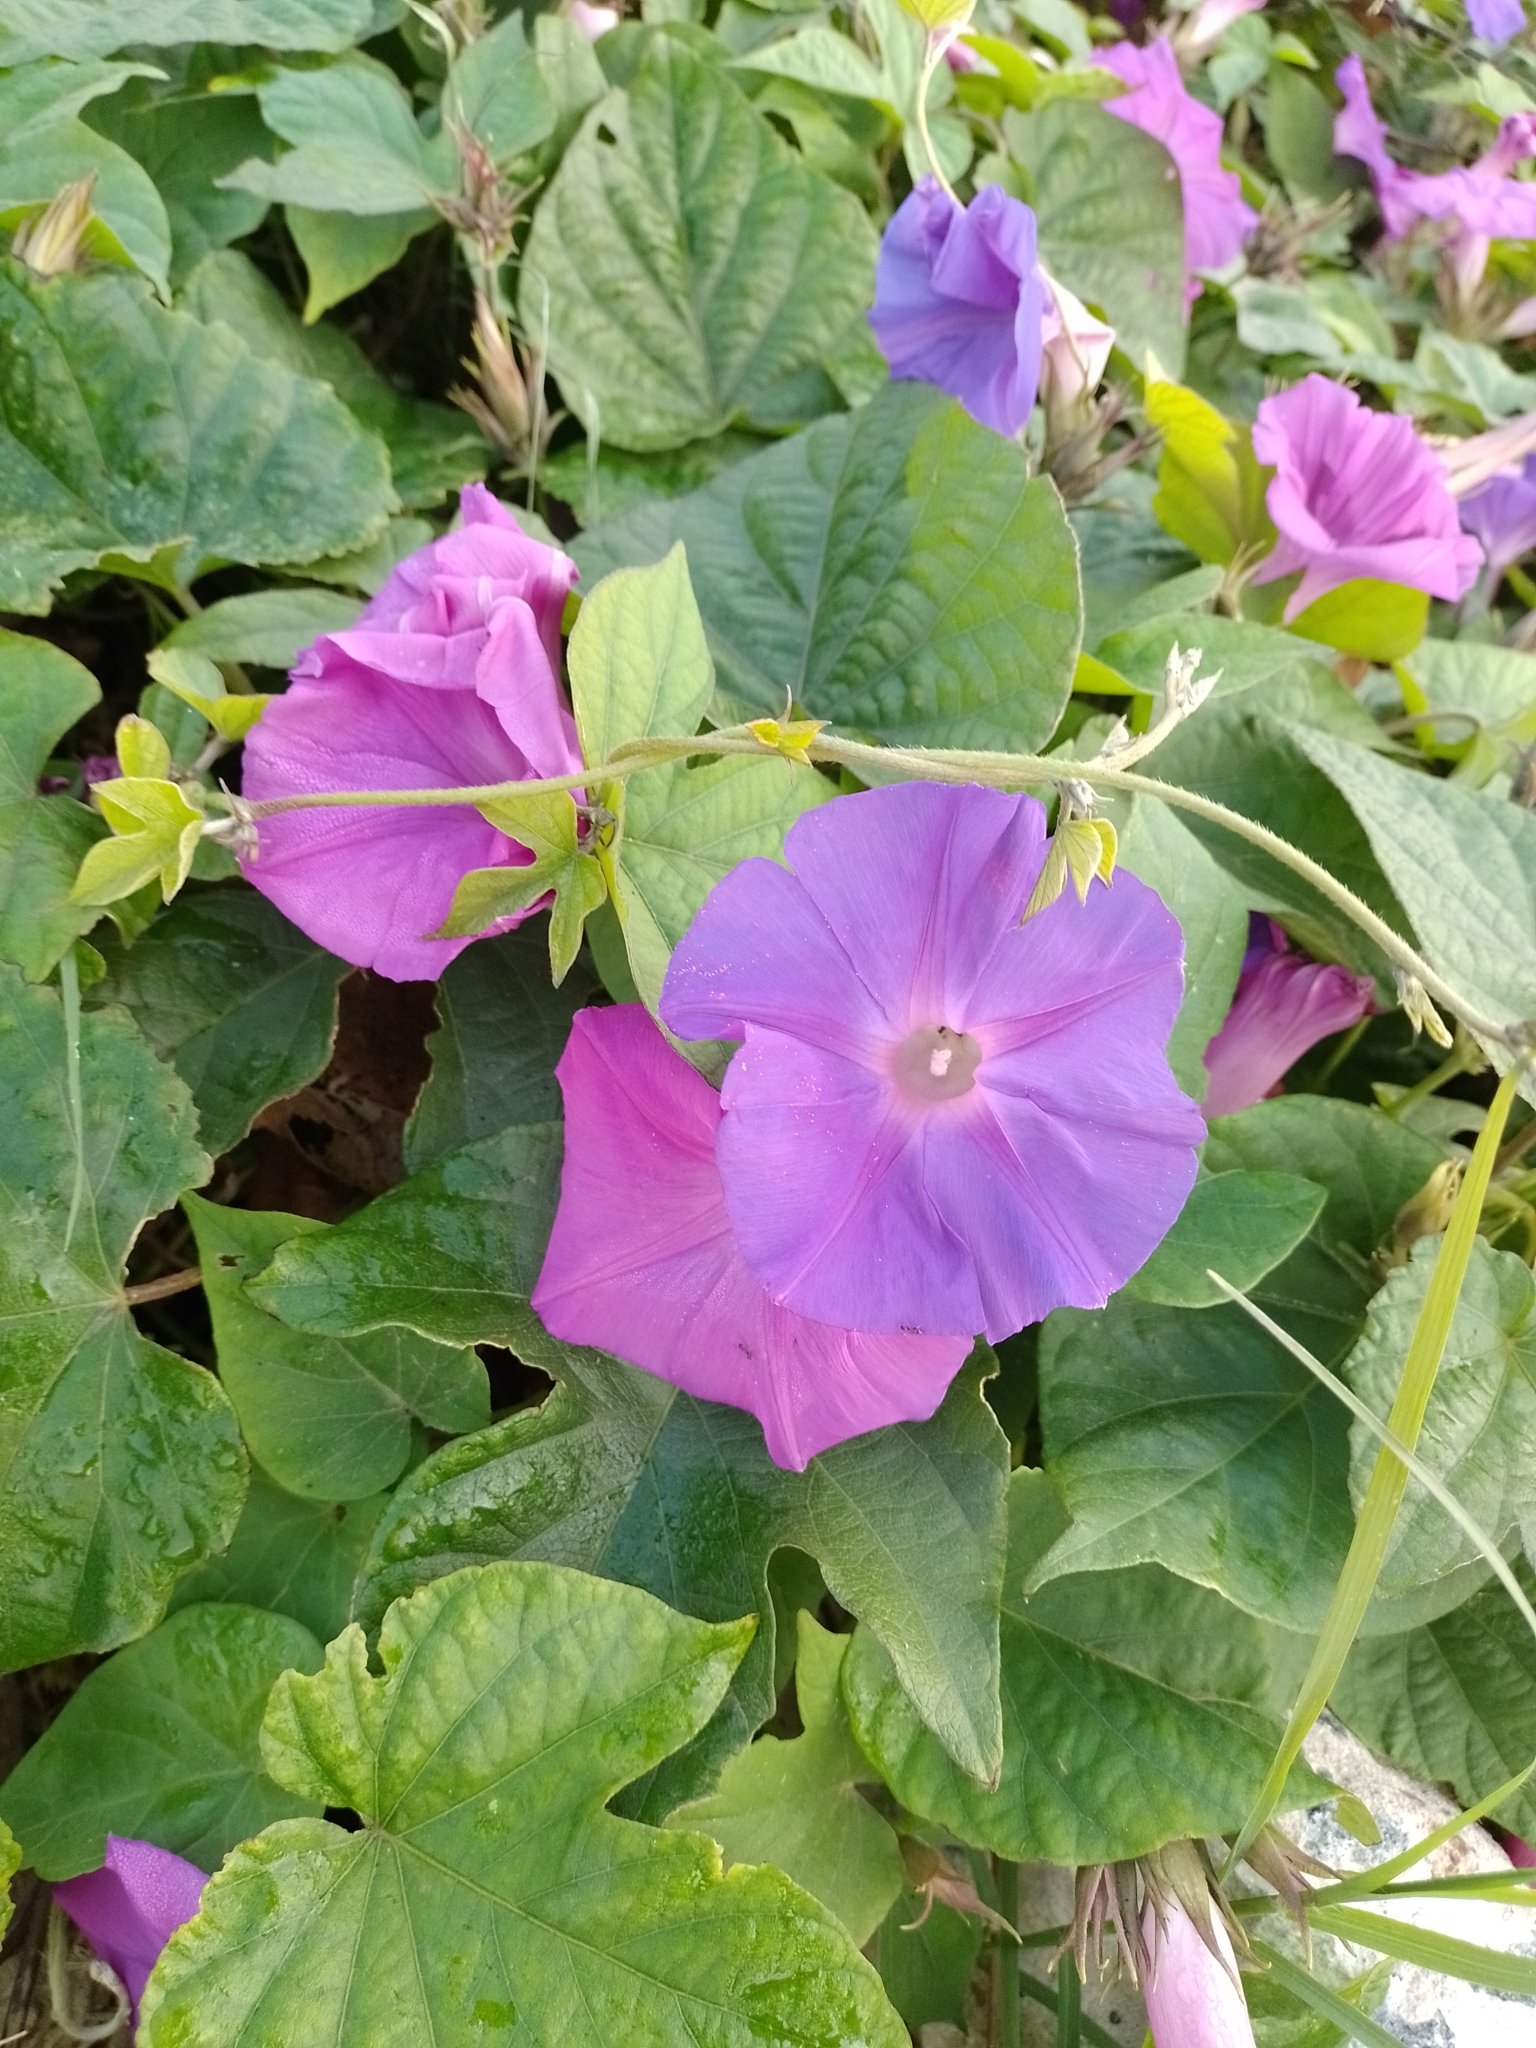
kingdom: Plantae
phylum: Tracheophyta
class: Magnoliopsida
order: Solanales
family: Convolvulaceae
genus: Ipomoea
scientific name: Ipomoea indica
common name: Blue dawnflower
